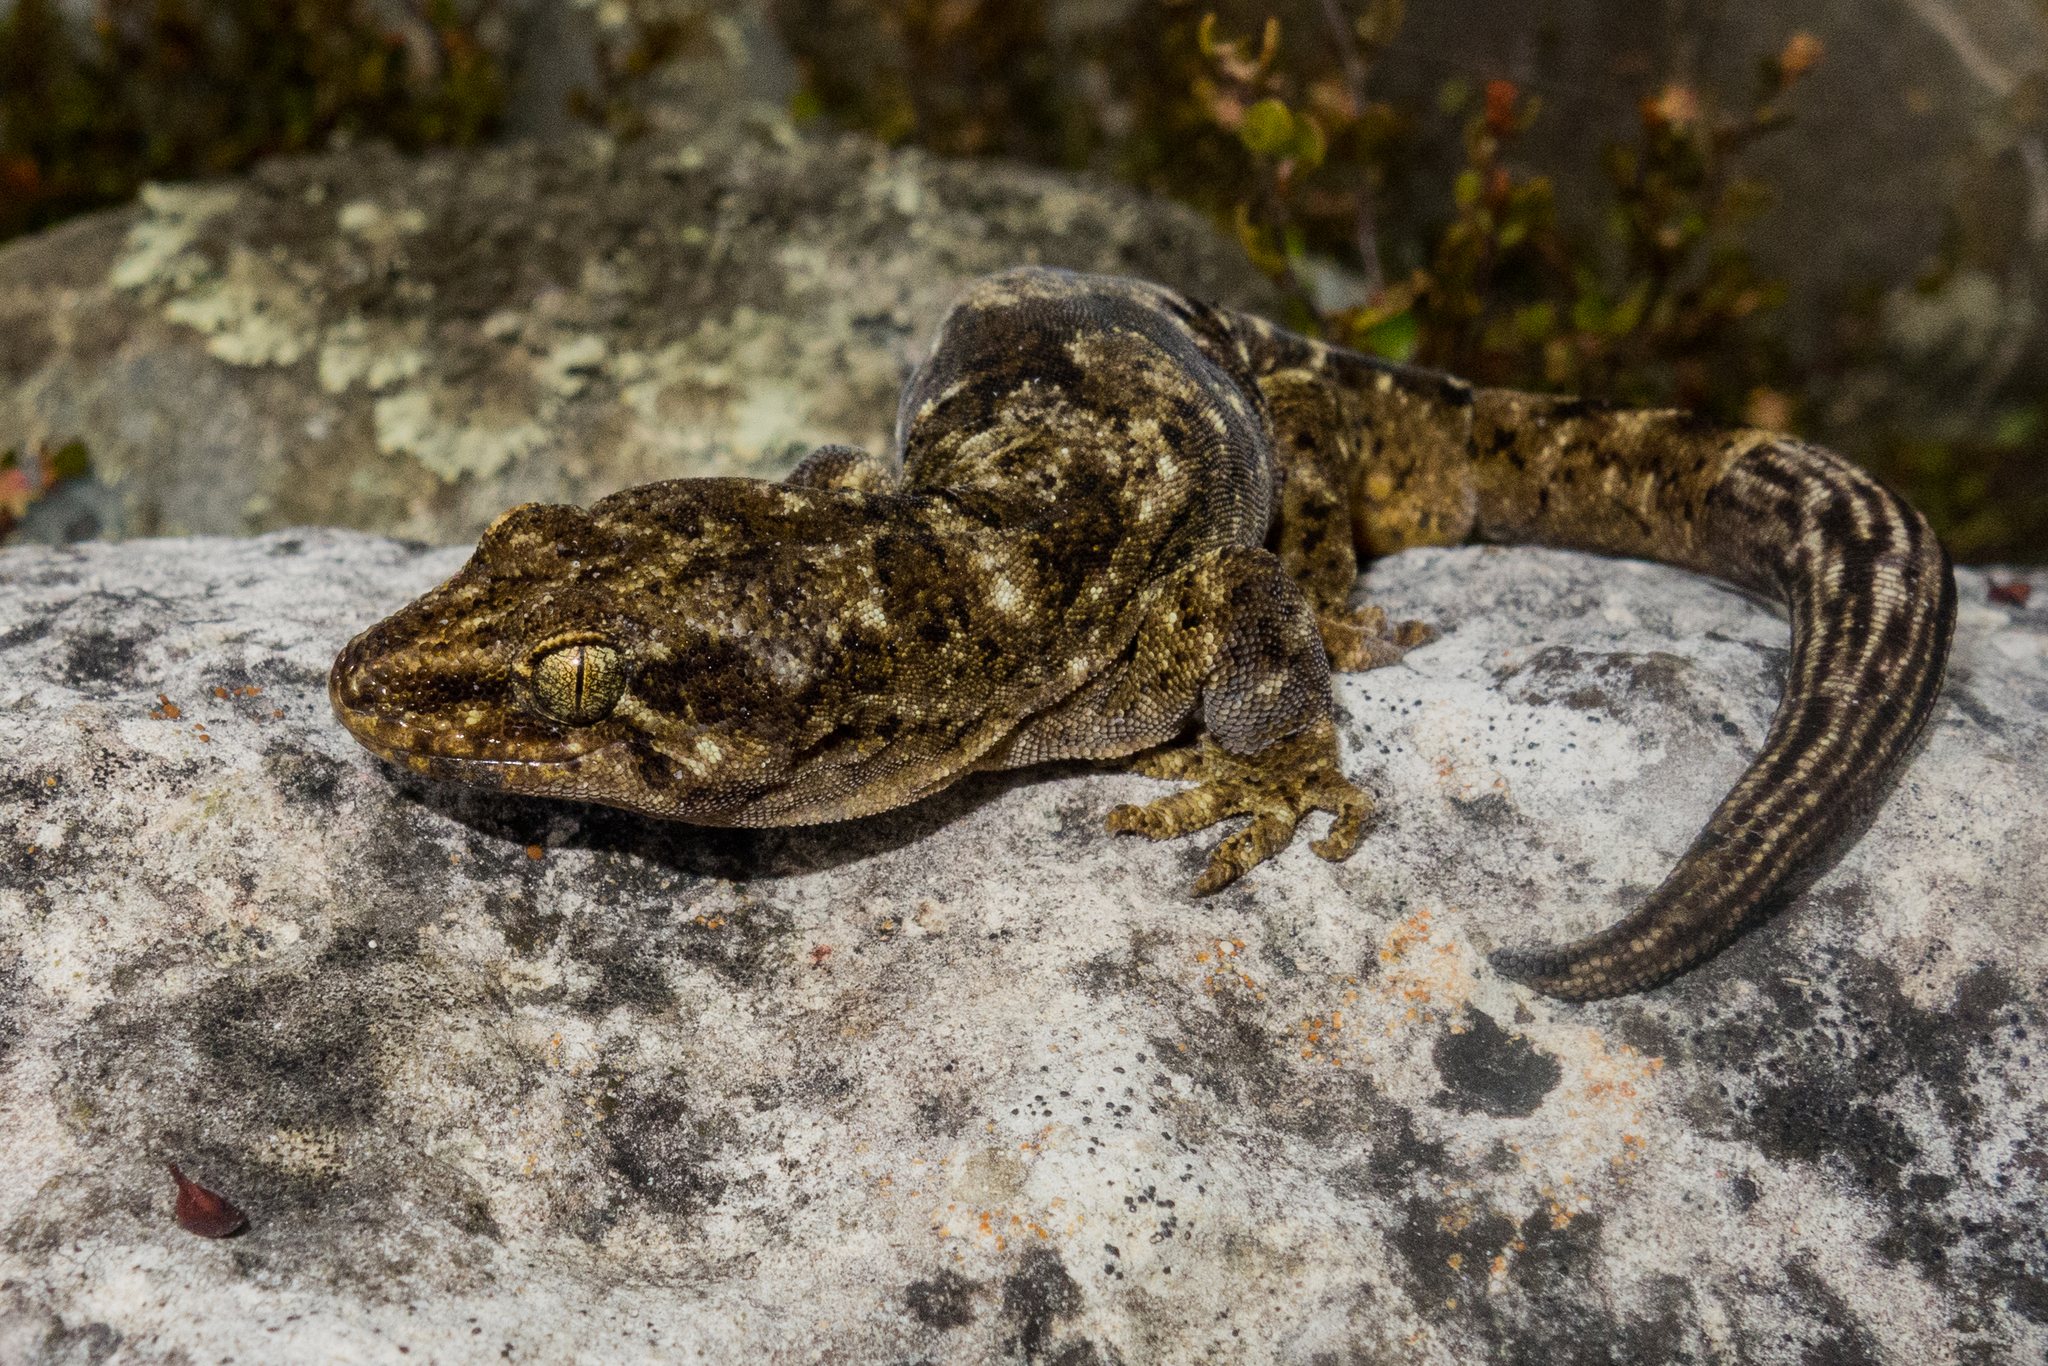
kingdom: Animalia
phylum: Chordata
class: Squamata
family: Diplodactylidae
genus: Woodworthia
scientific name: Woodworthia brunnea
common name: Canterbury gecko
